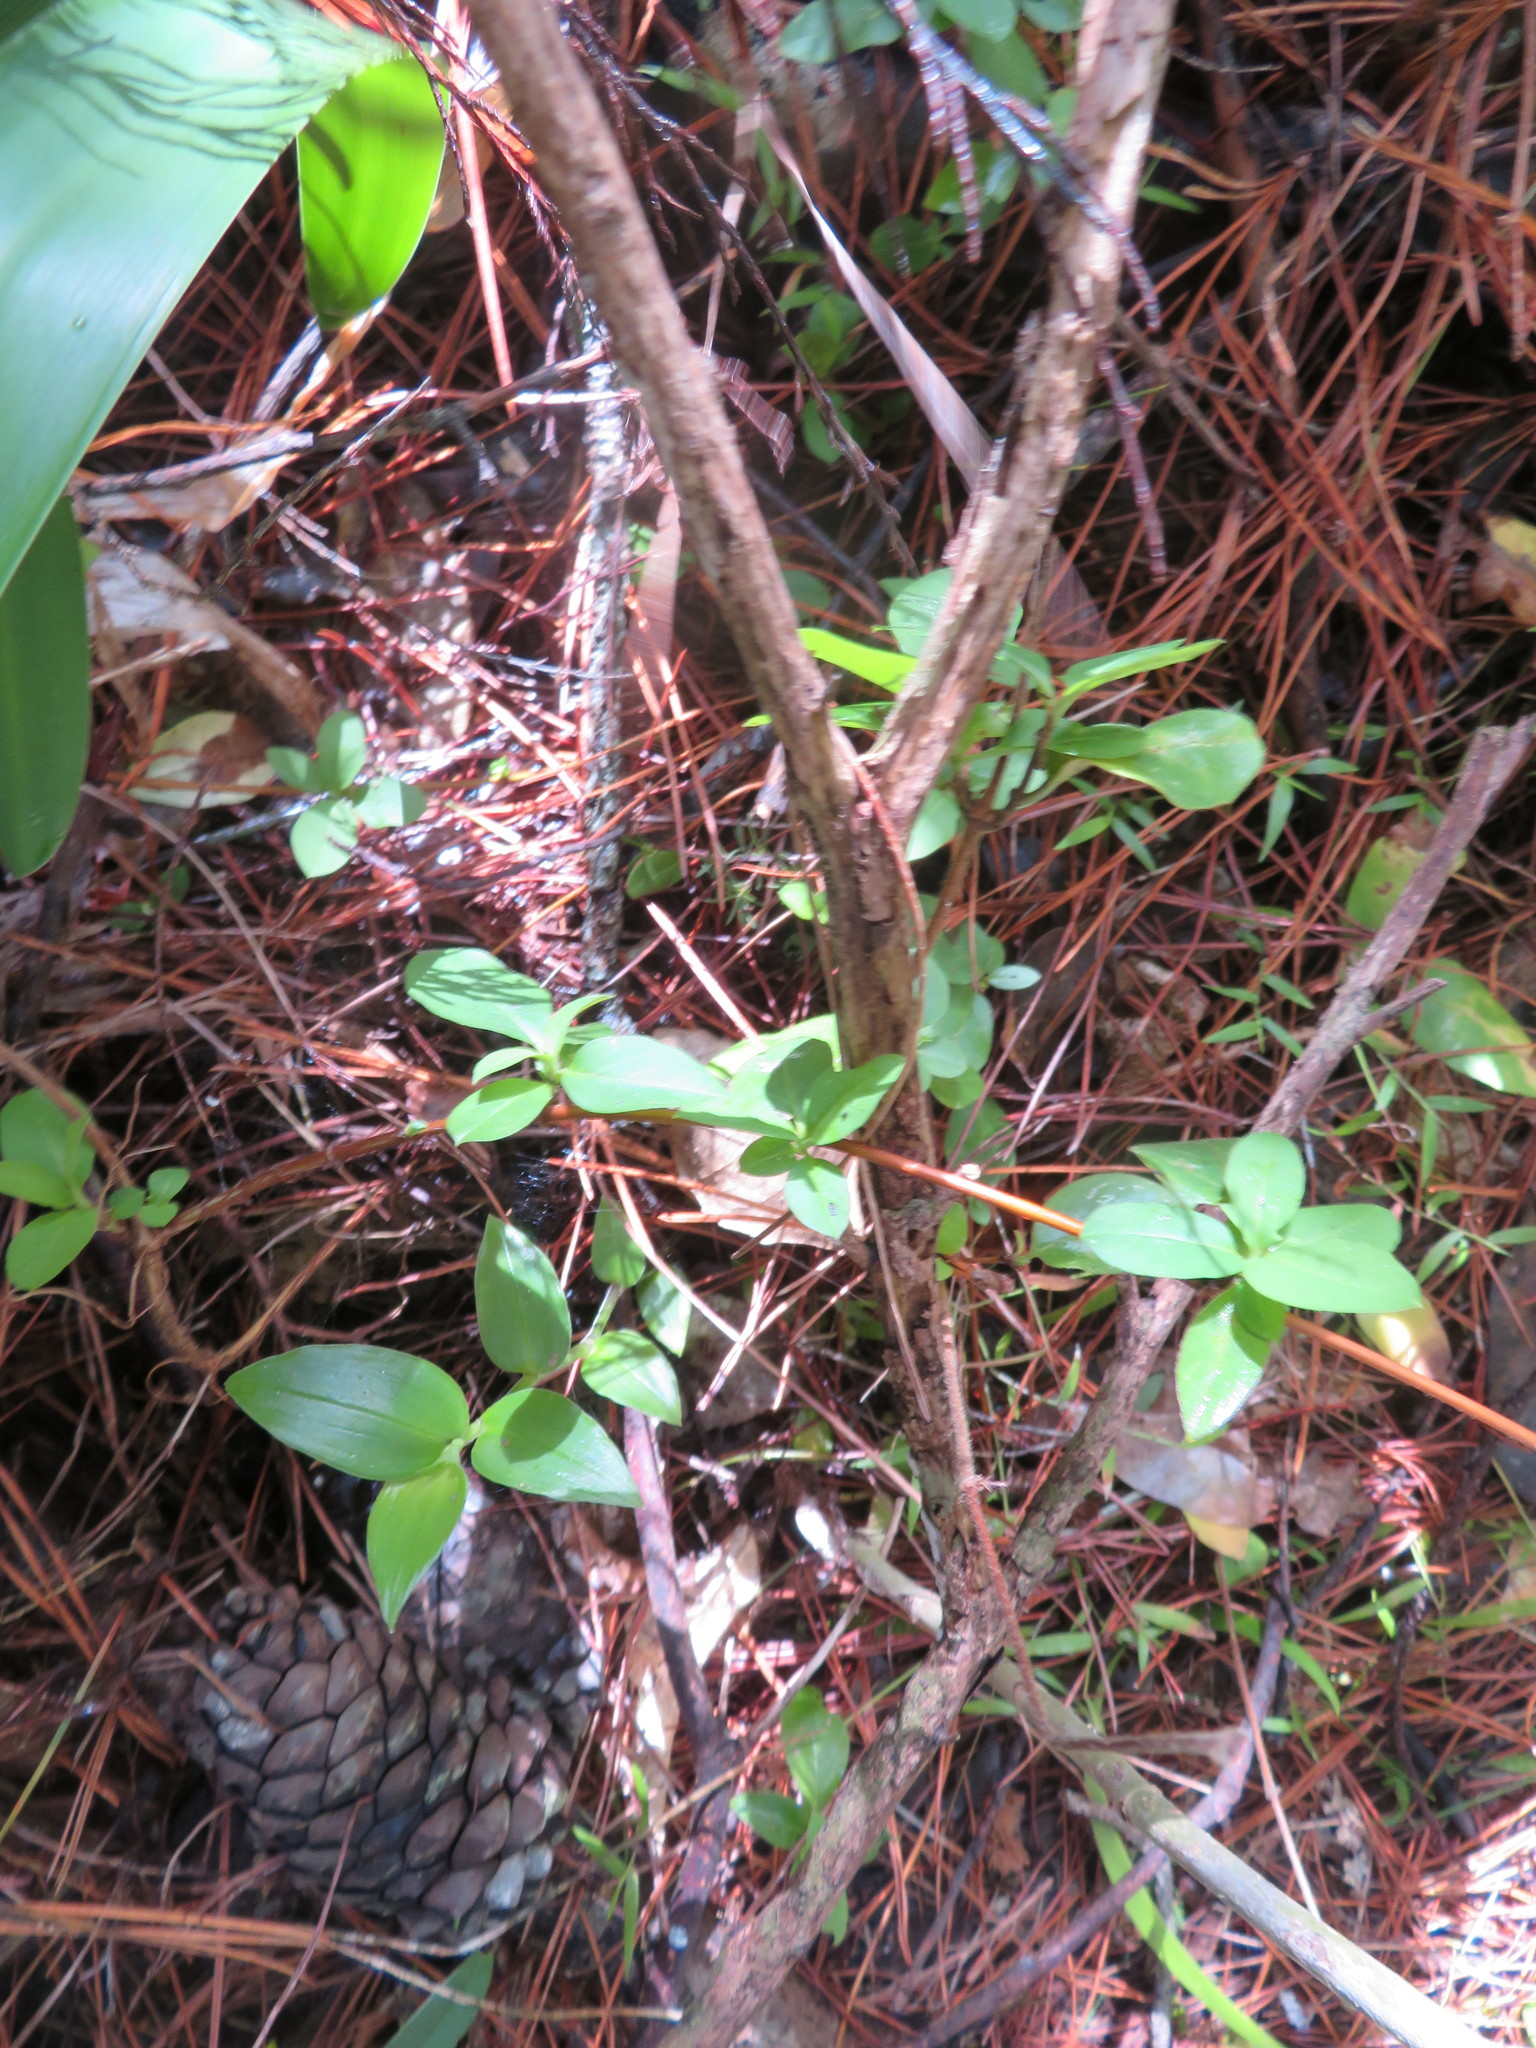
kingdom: Plantae
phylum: Tracheophyta
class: Magnoliopsida
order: Dipsacales
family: Caprifoliaceae
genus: Lonicera
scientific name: Lonicera japonica
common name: Japanese honeysuckle
